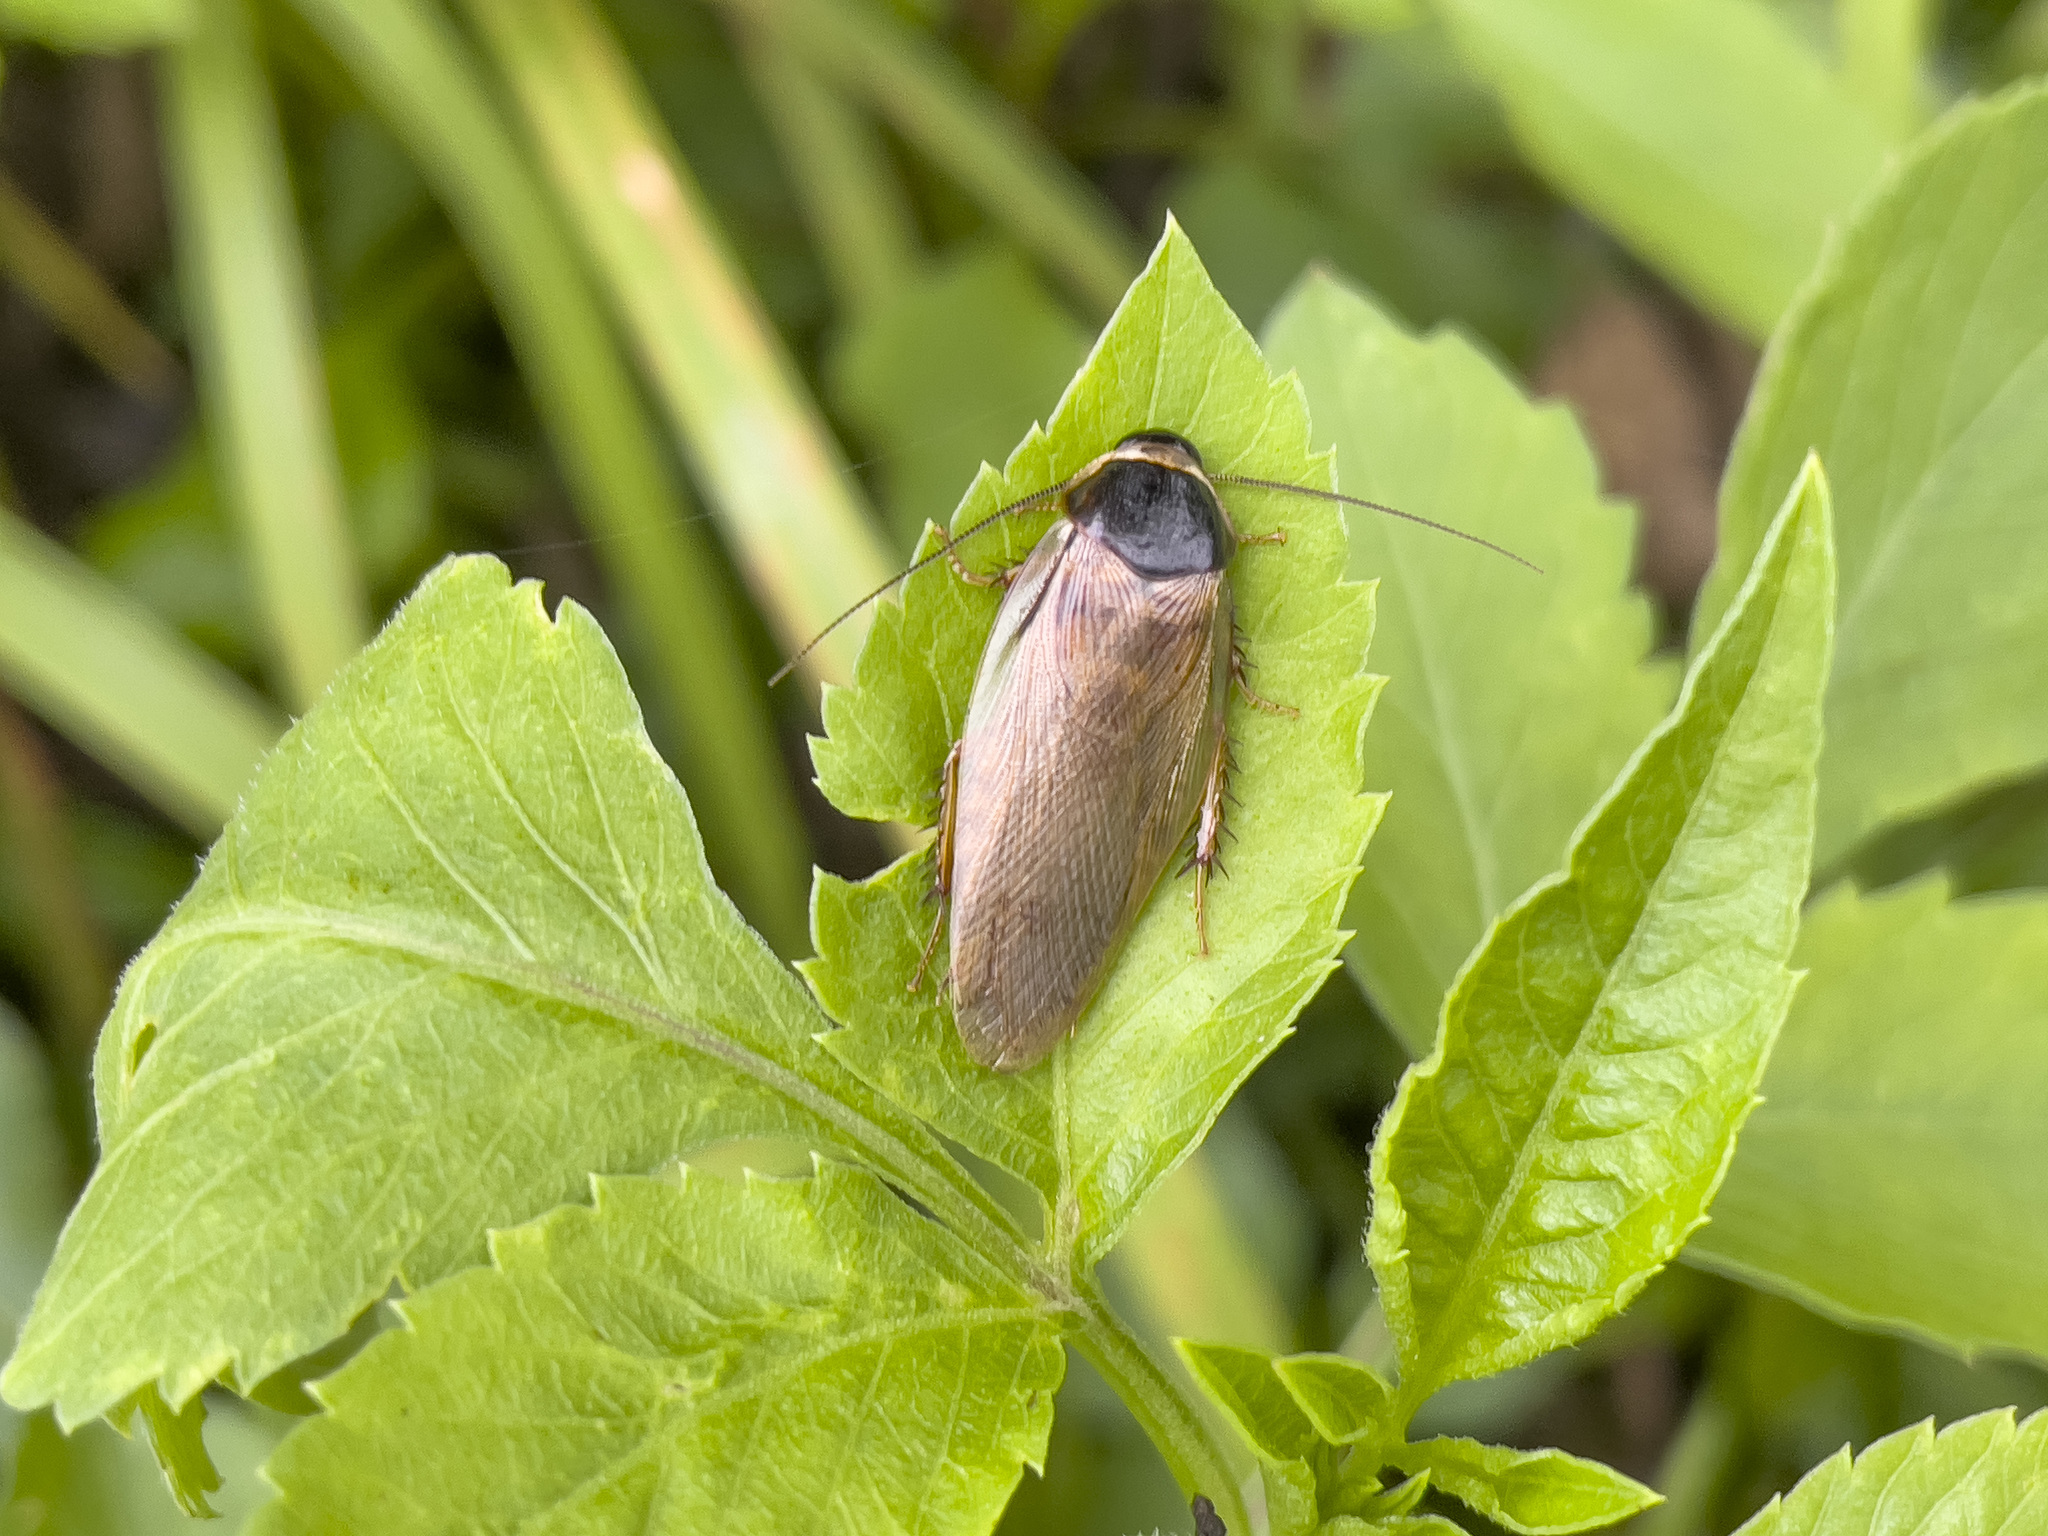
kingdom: Animalia
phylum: Arthropoda
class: Insecta
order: Blattodea
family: Blaberidae
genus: Pycnoscelus
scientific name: Pycnoscelus indicus
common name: Burrowing cockroach
